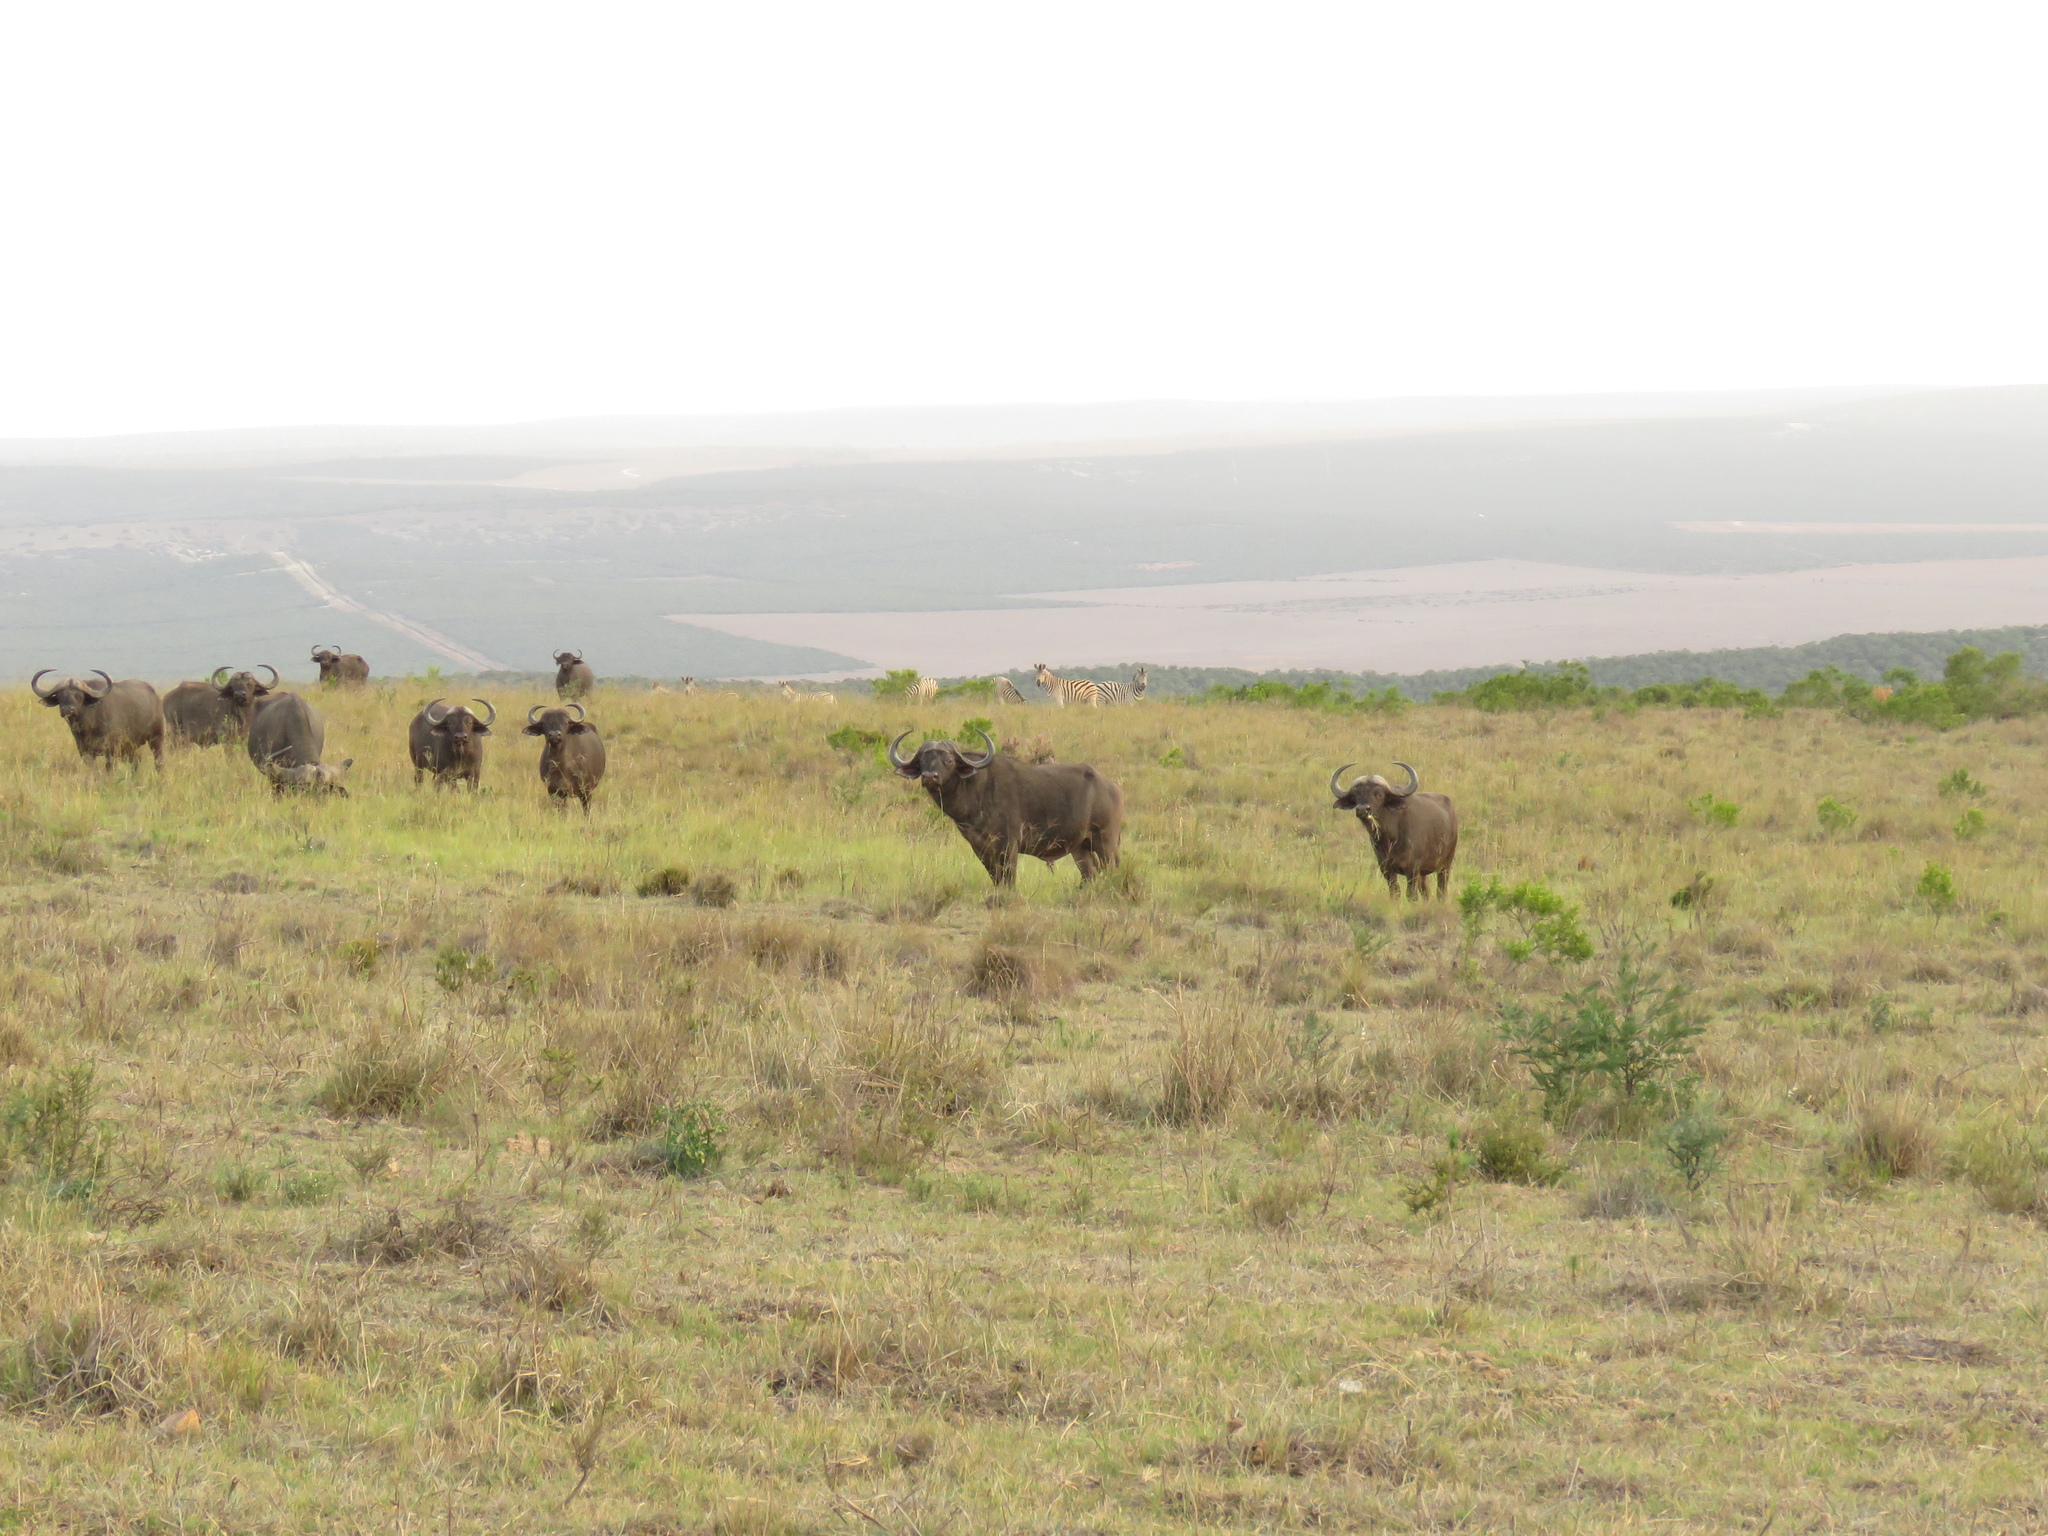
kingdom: Animalia
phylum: Chordata
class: Mammalia
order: Artiodactyla
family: Bovidae
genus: Syncerus
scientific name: Syncerus caffer
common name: African buffalo
